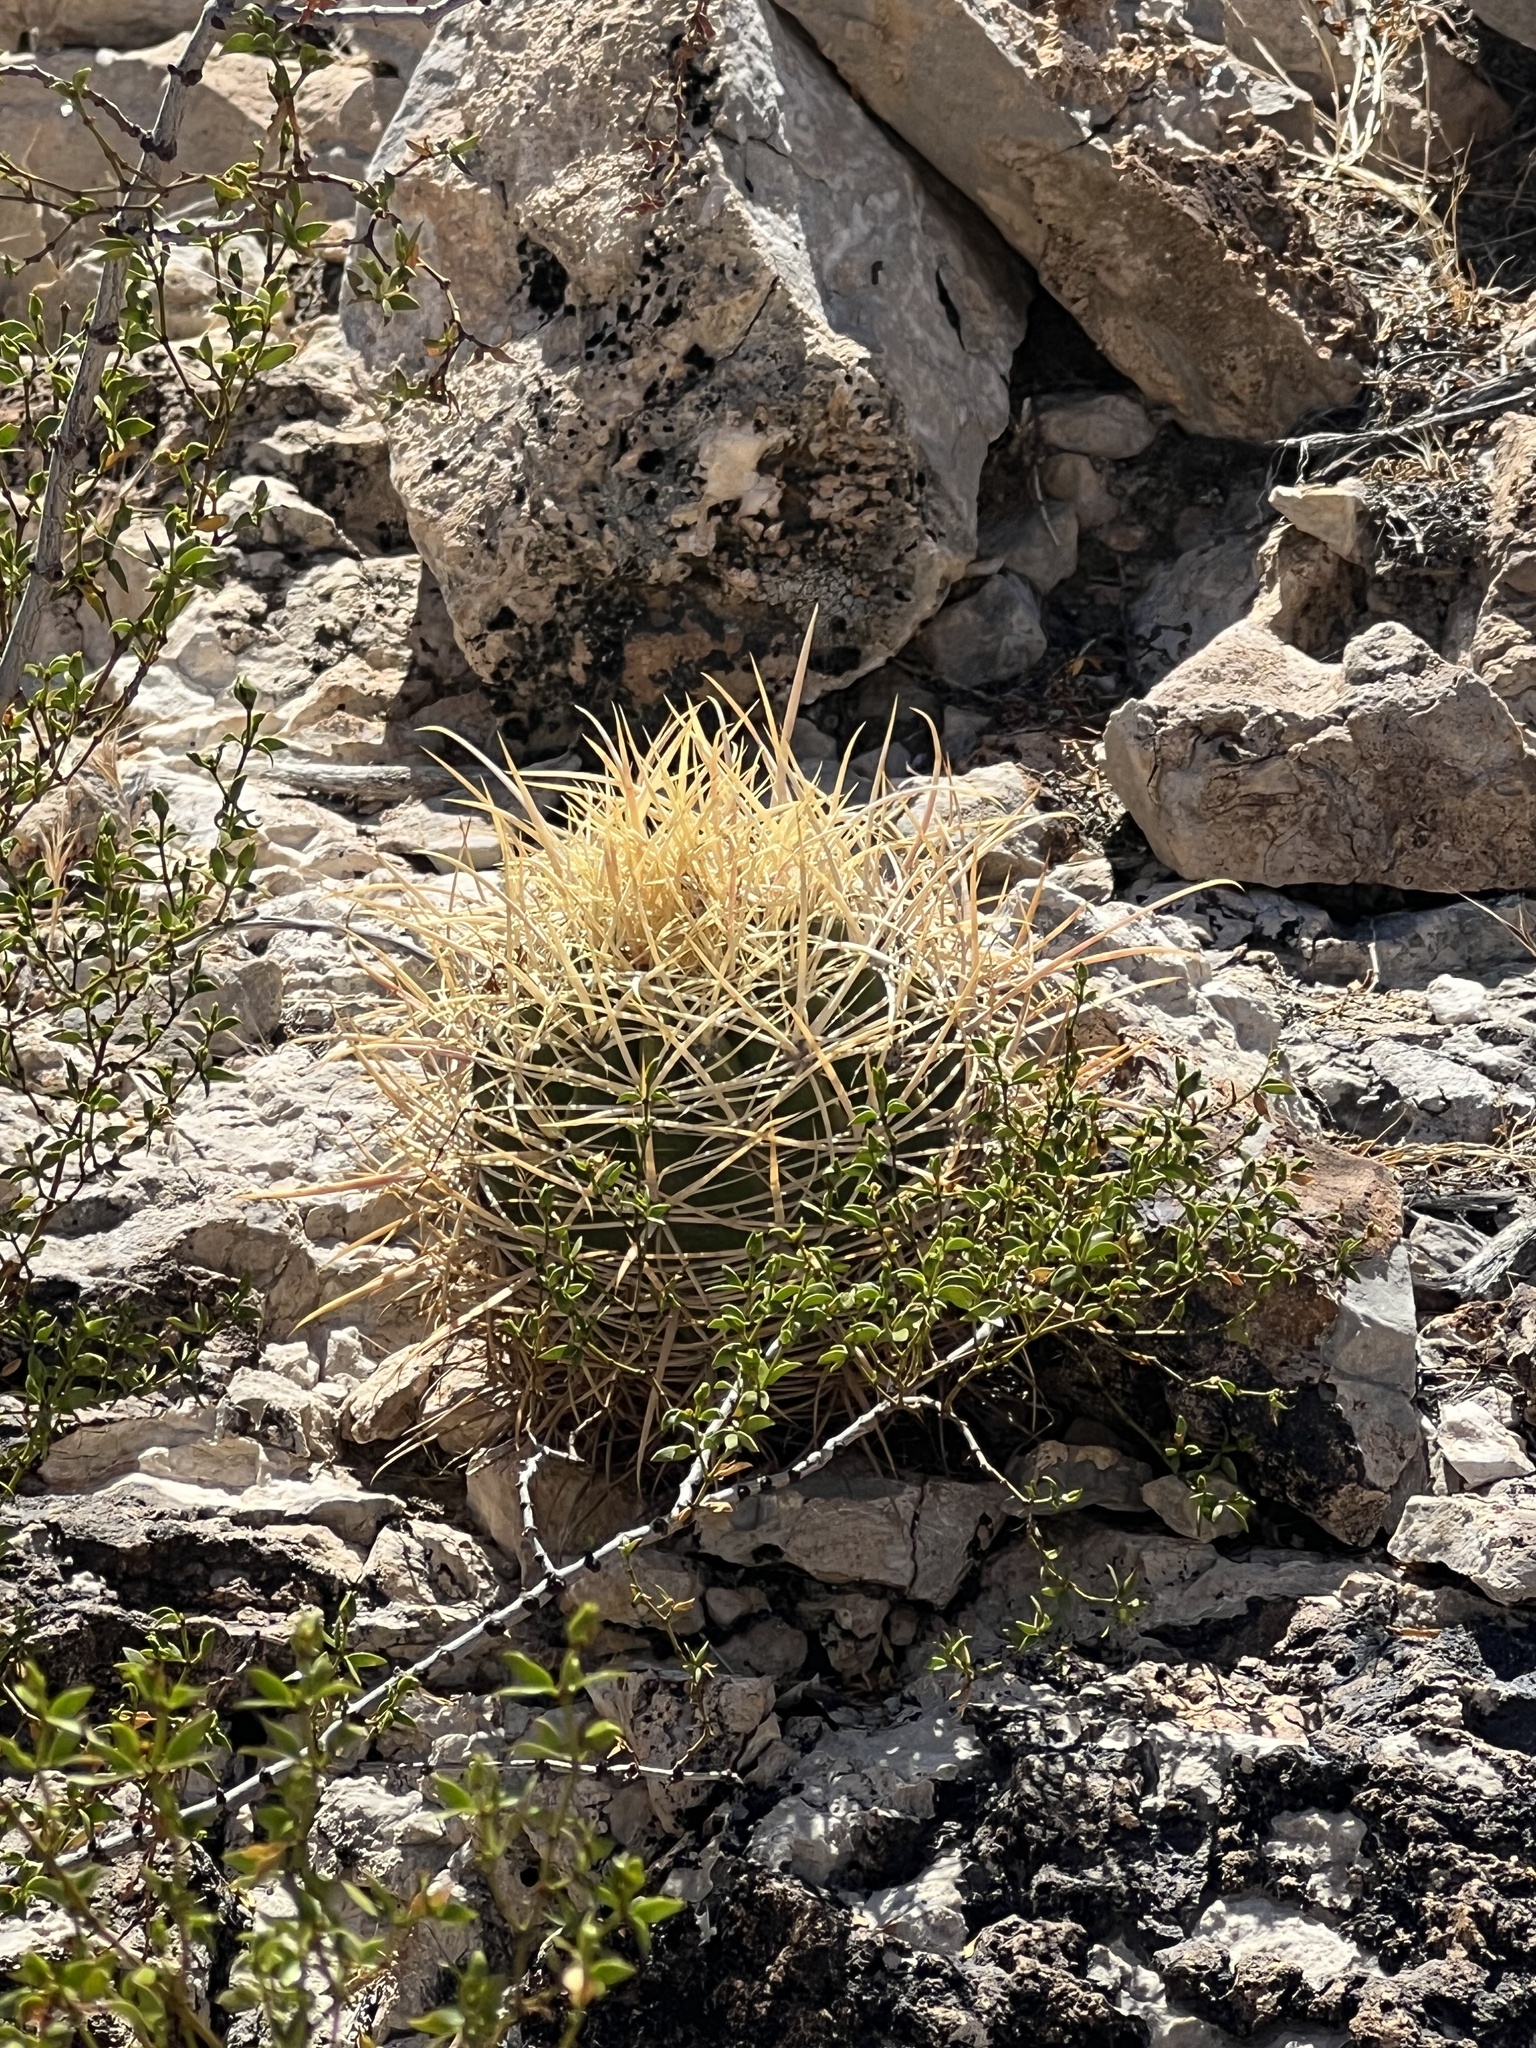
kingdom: Plantae
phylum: Tracheophyta
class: Magnoliopsida
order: Caryophyllales
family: Cactaceae
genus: Ferocactus
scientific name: Ferocactus cylindraceus
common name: California barrel cactus
